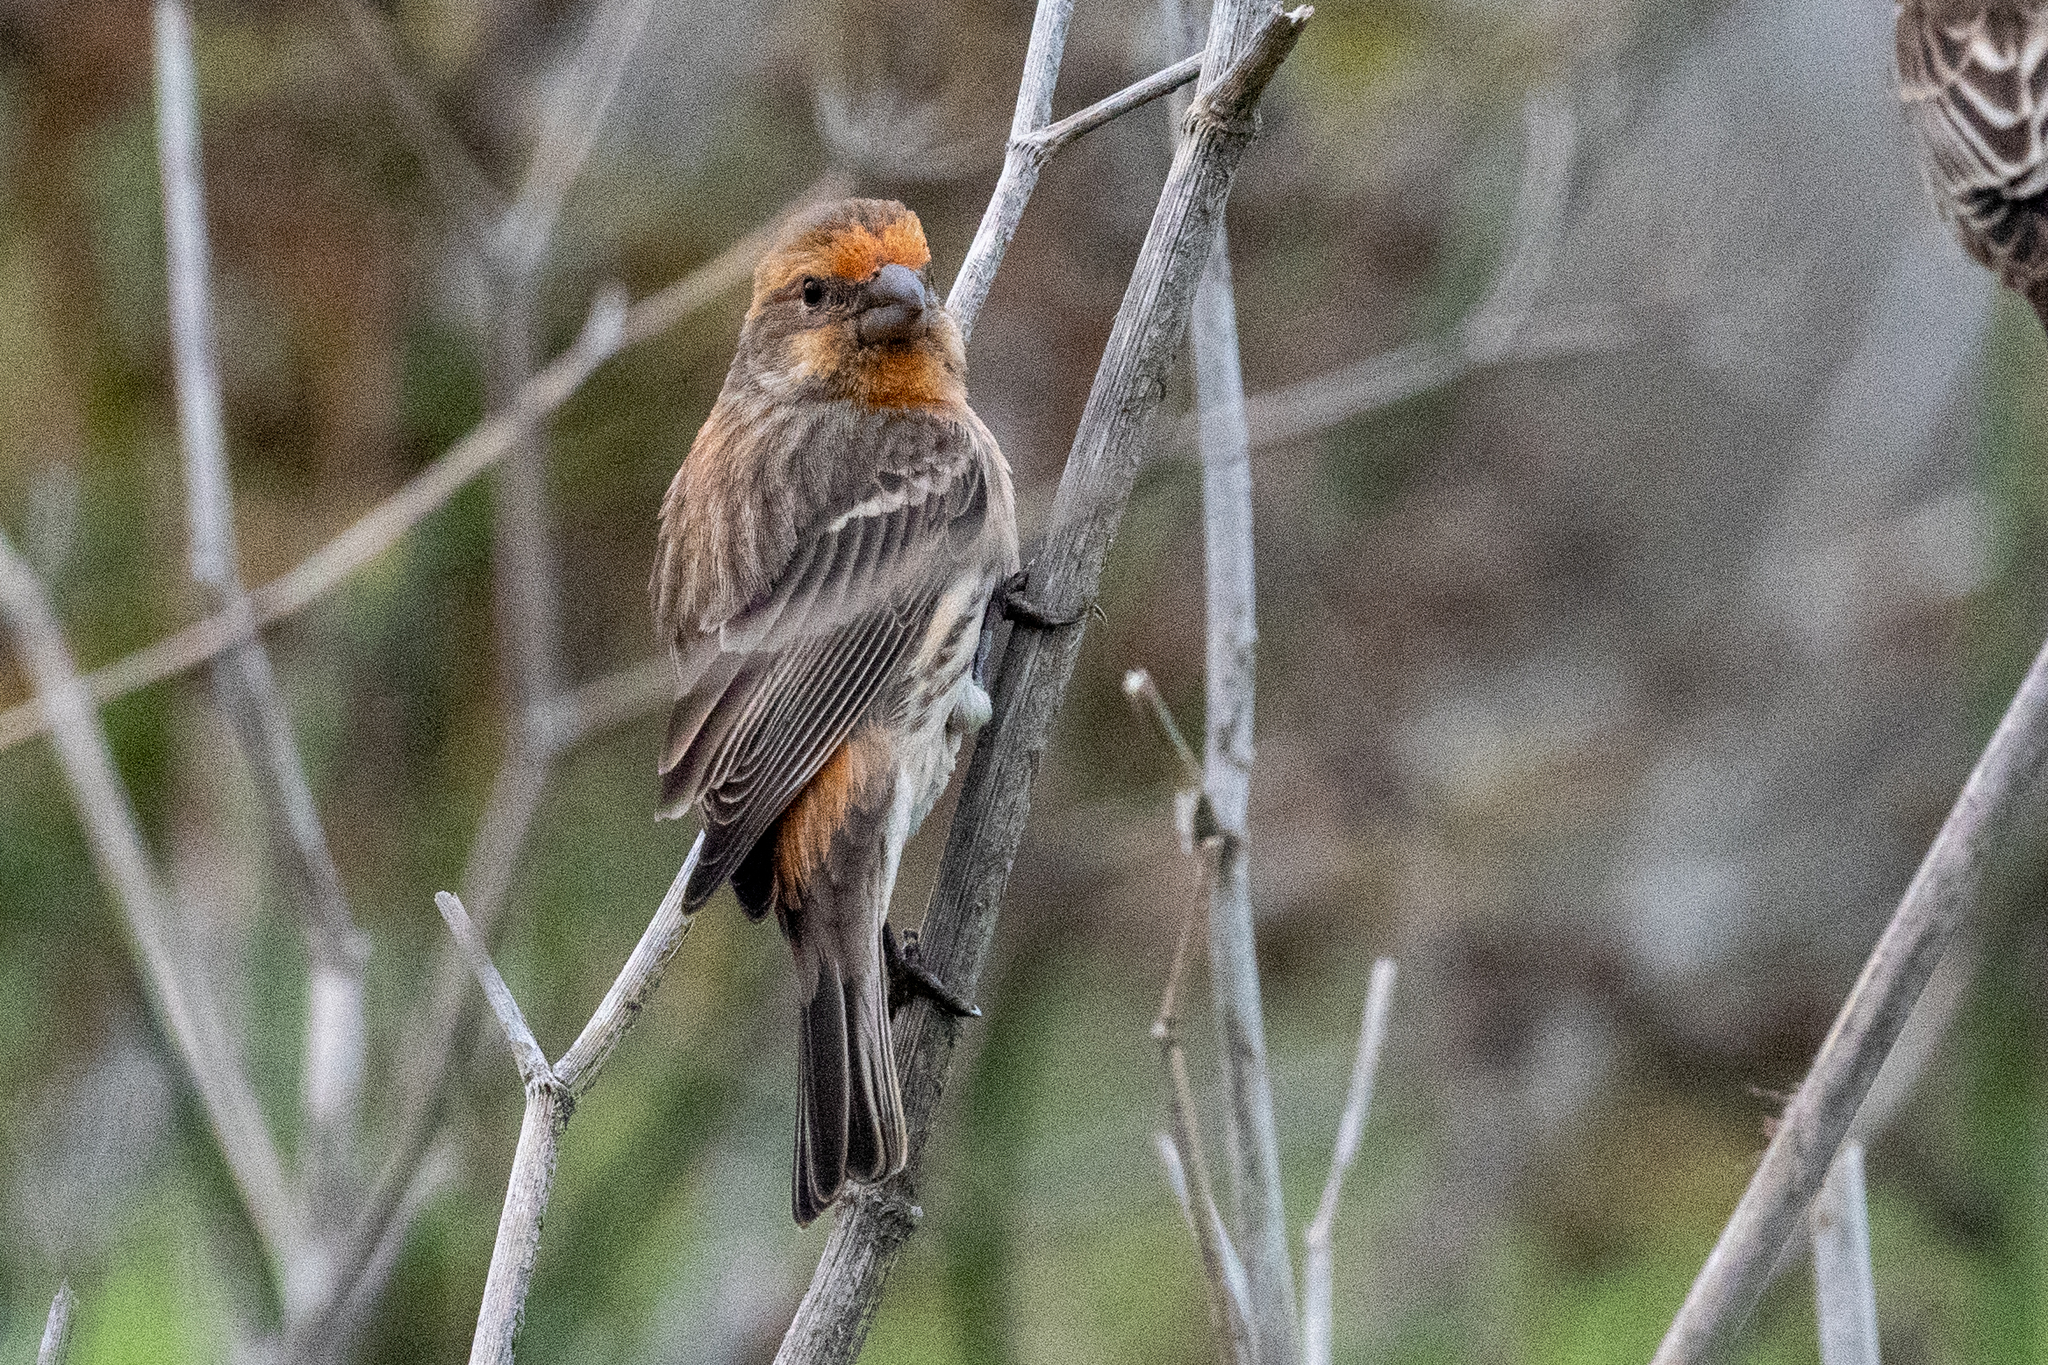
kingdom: Animalia
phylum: Chordata
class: Aves
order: Passeriformes
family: Fringillidae
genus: Haemorhous
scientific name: Haemorhous mexicanus
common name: House finch
